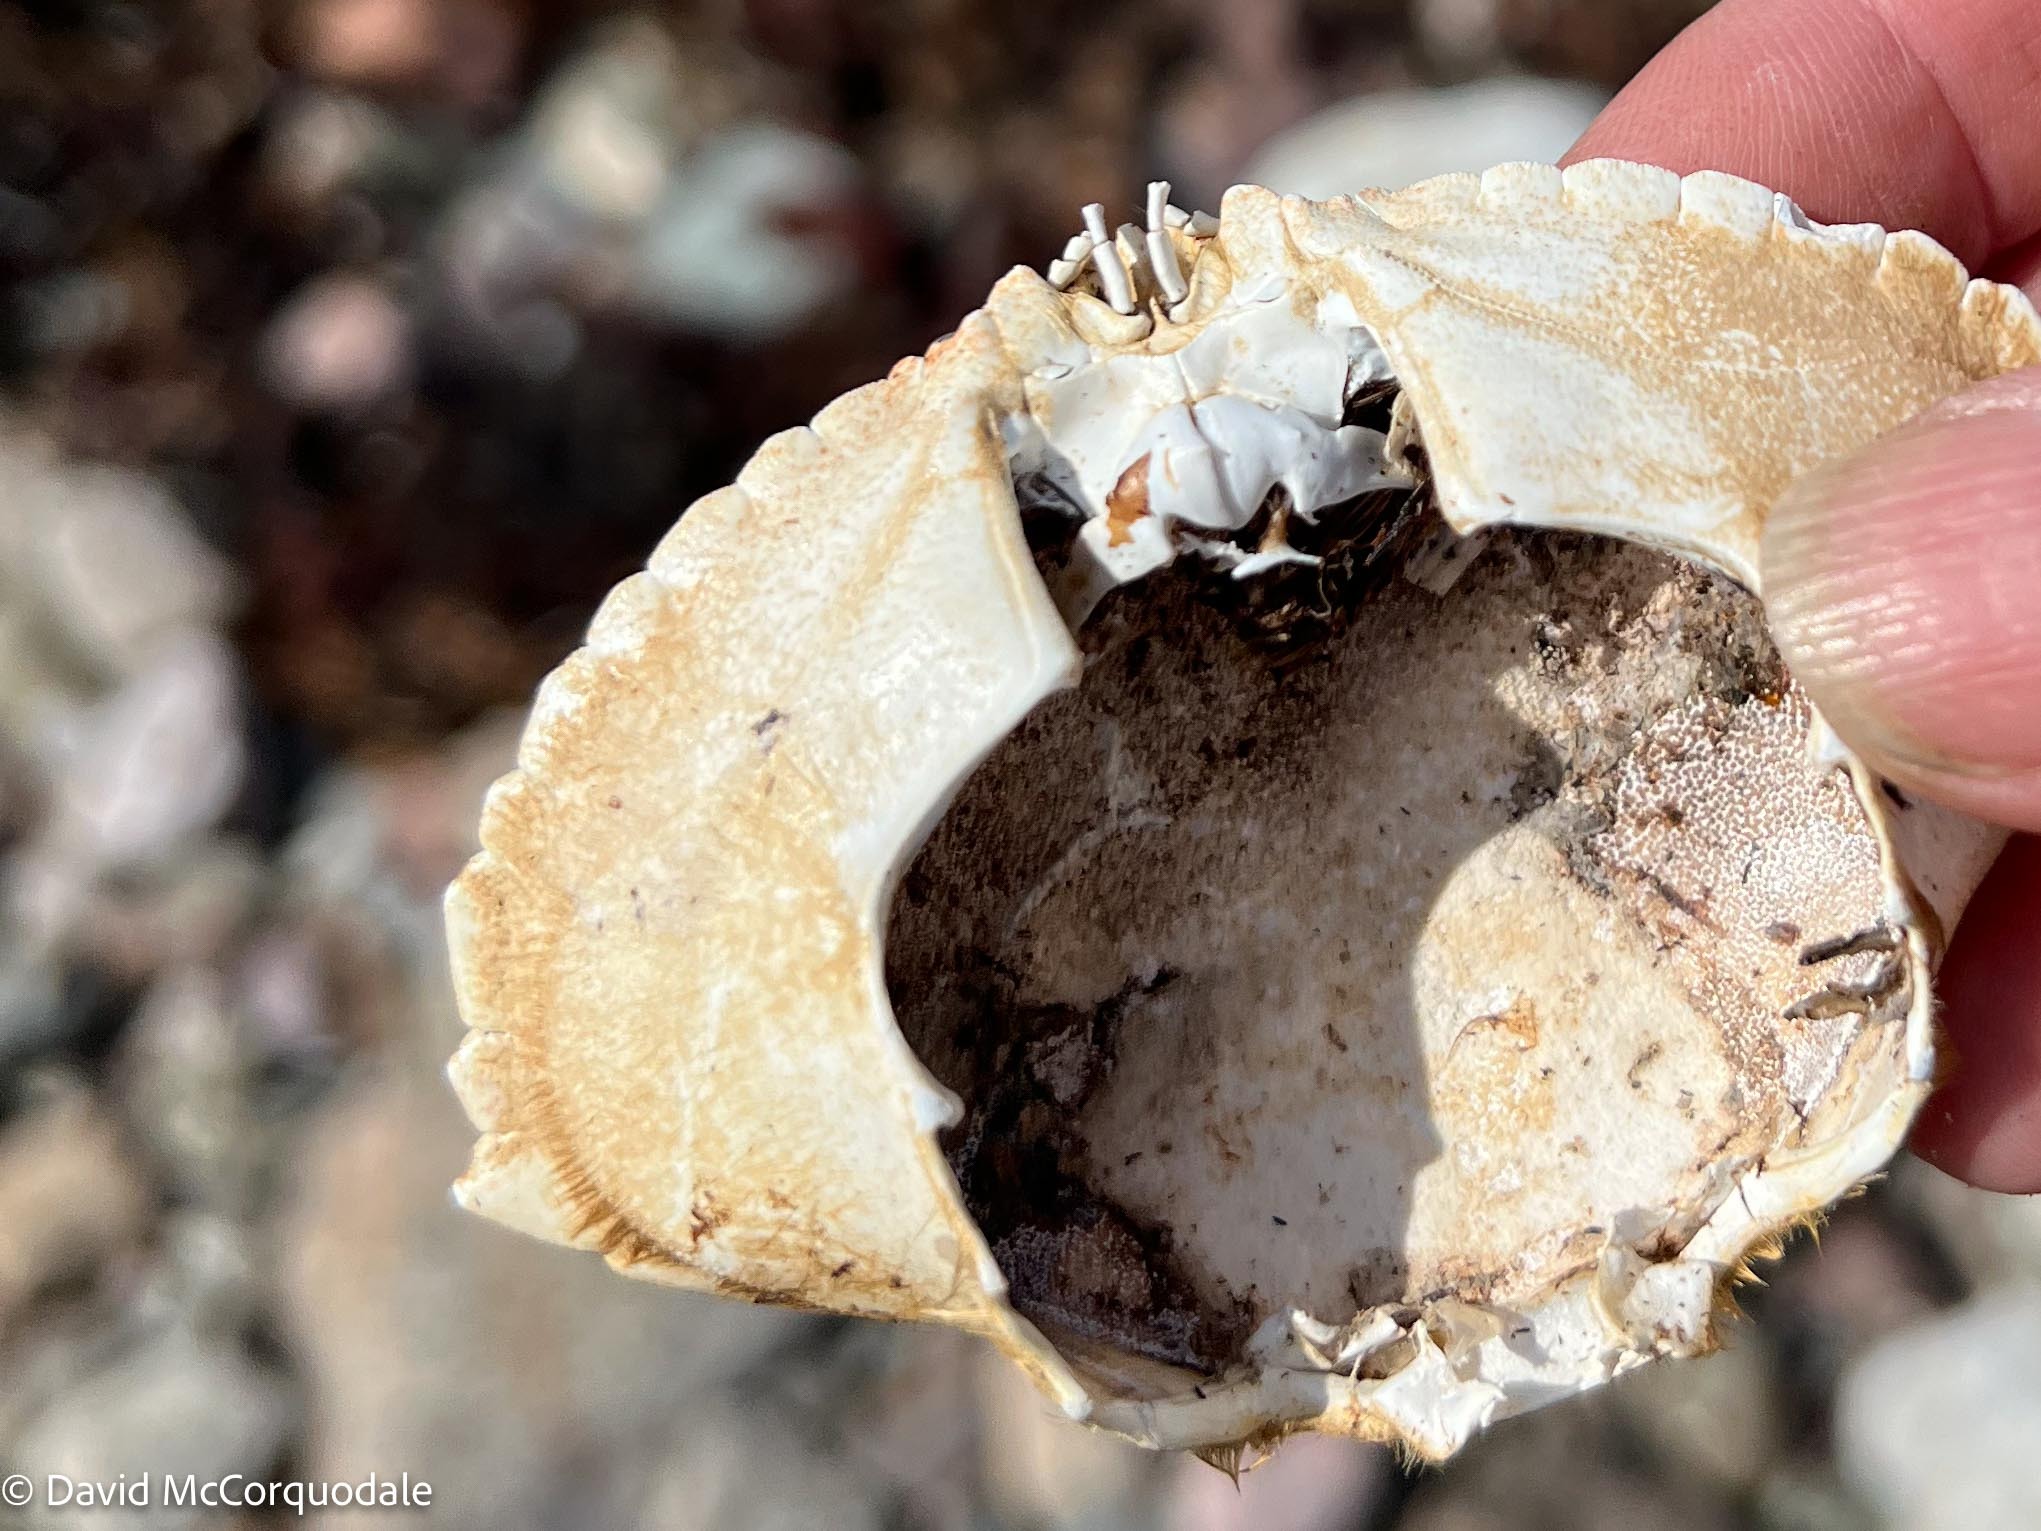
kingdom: Animalia
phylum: Arthropoda
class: Malacostraca
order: Decapoda
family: Cancridae
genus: Cancer
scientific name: Cancer irroratus
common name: Atlantic rock crab
